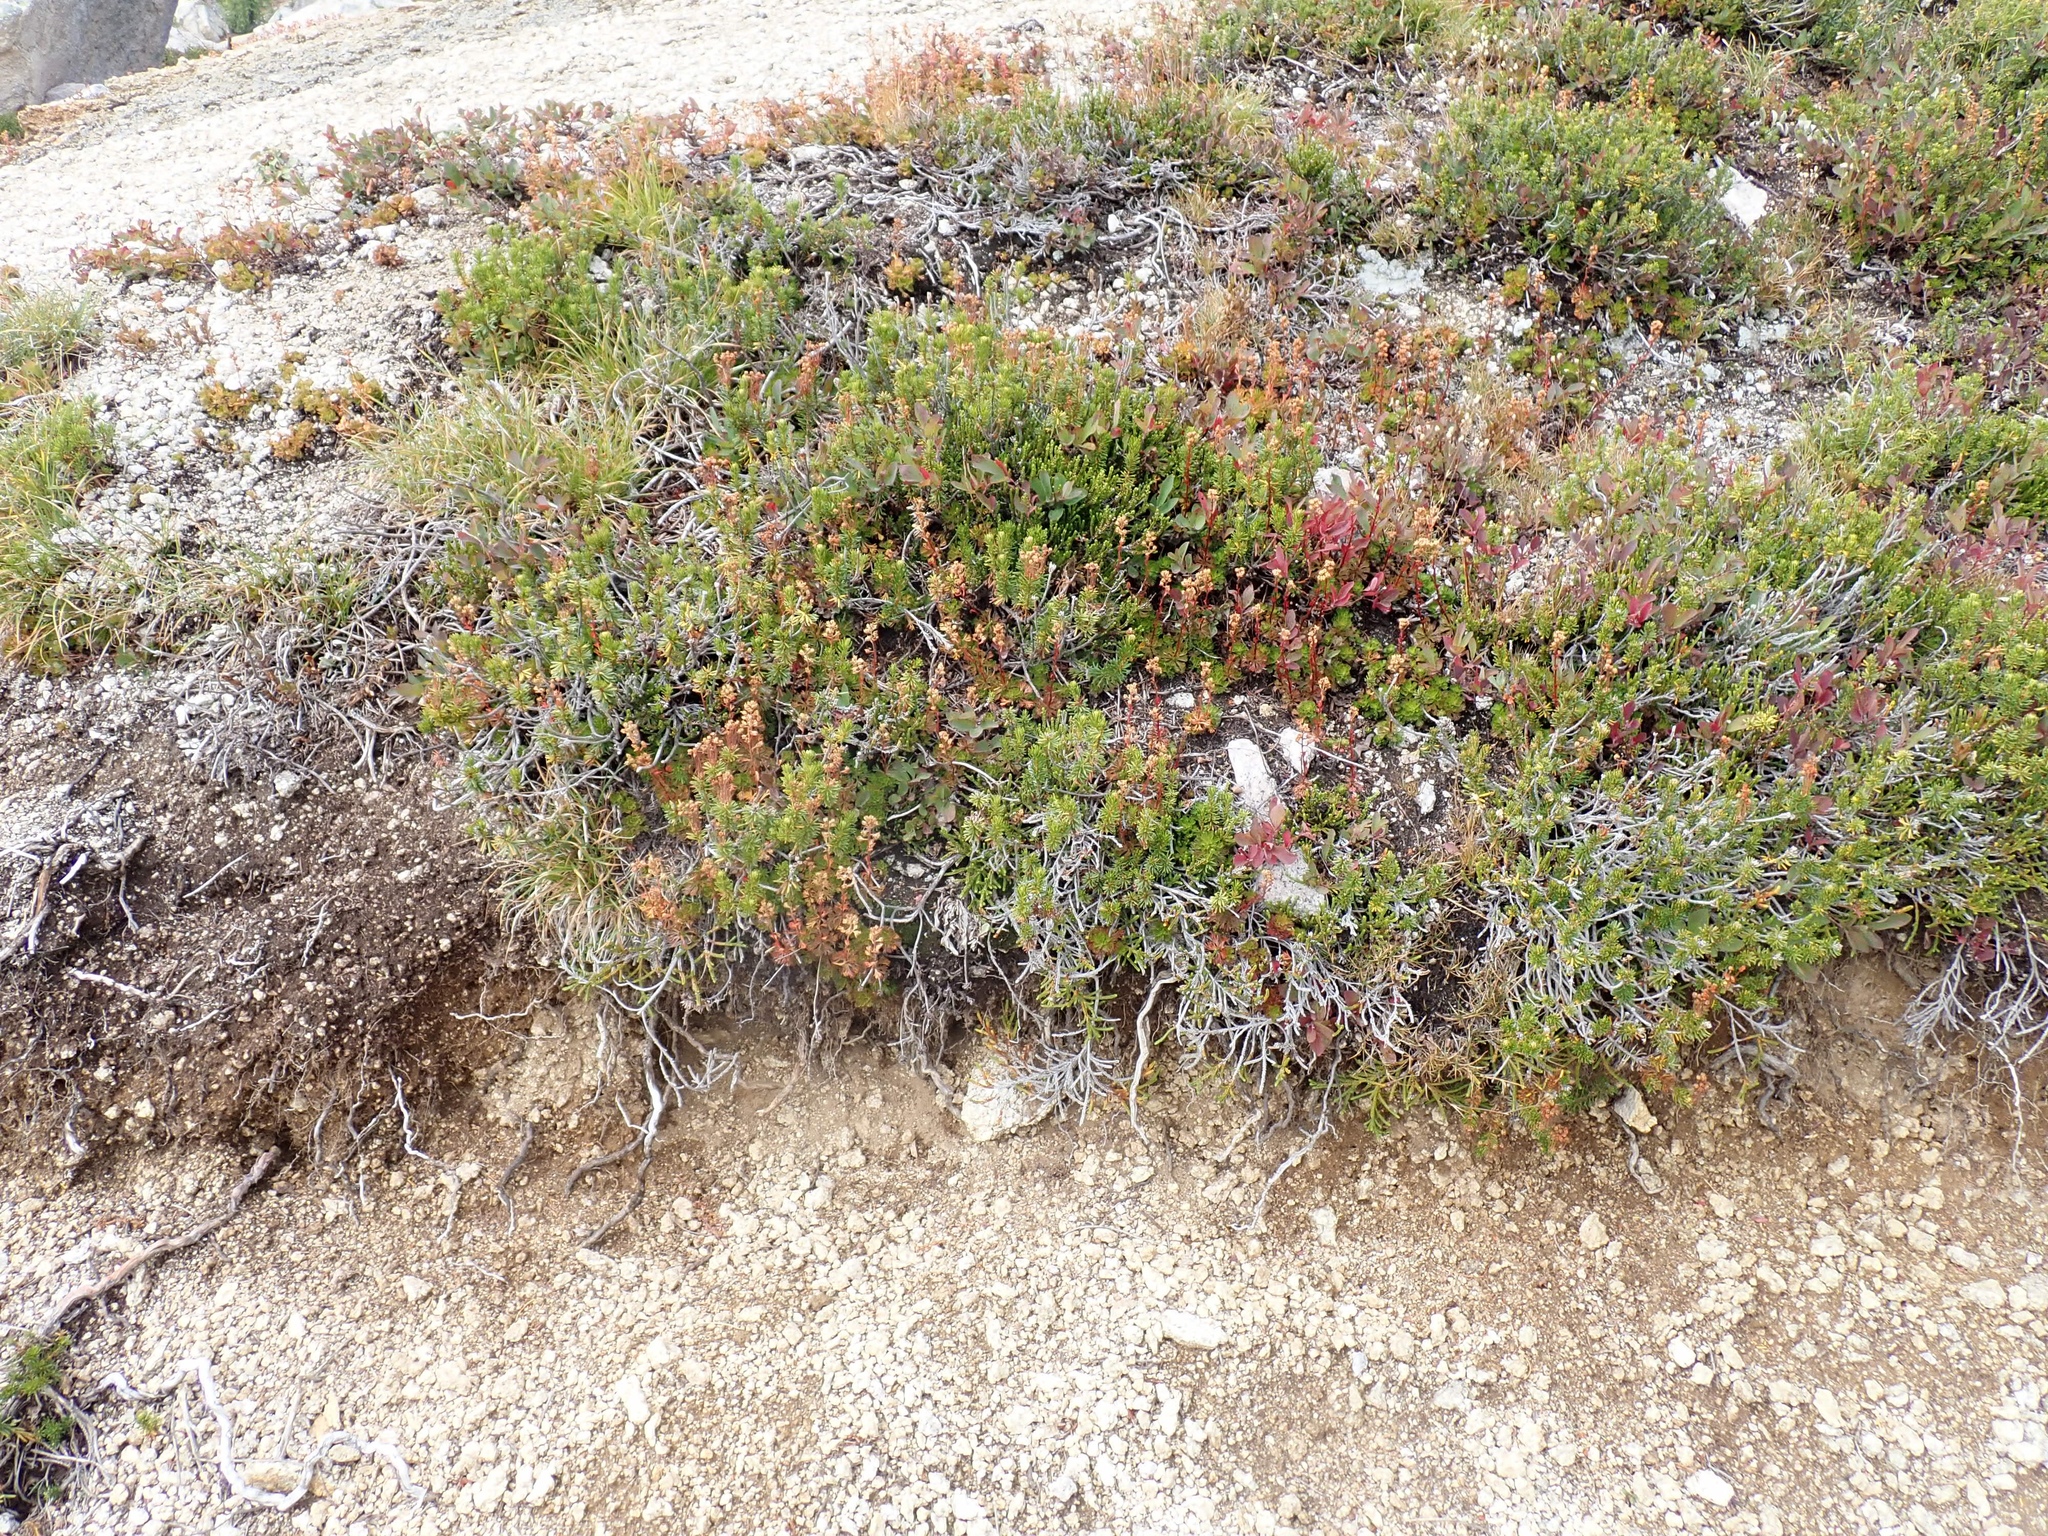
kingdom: Plantae
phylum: Tracheophyta
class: Magnoliopsida
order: Rosales
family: Rosaceae
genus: Luetkea
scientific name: Luetkea pectinata
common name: Partridgefoot
